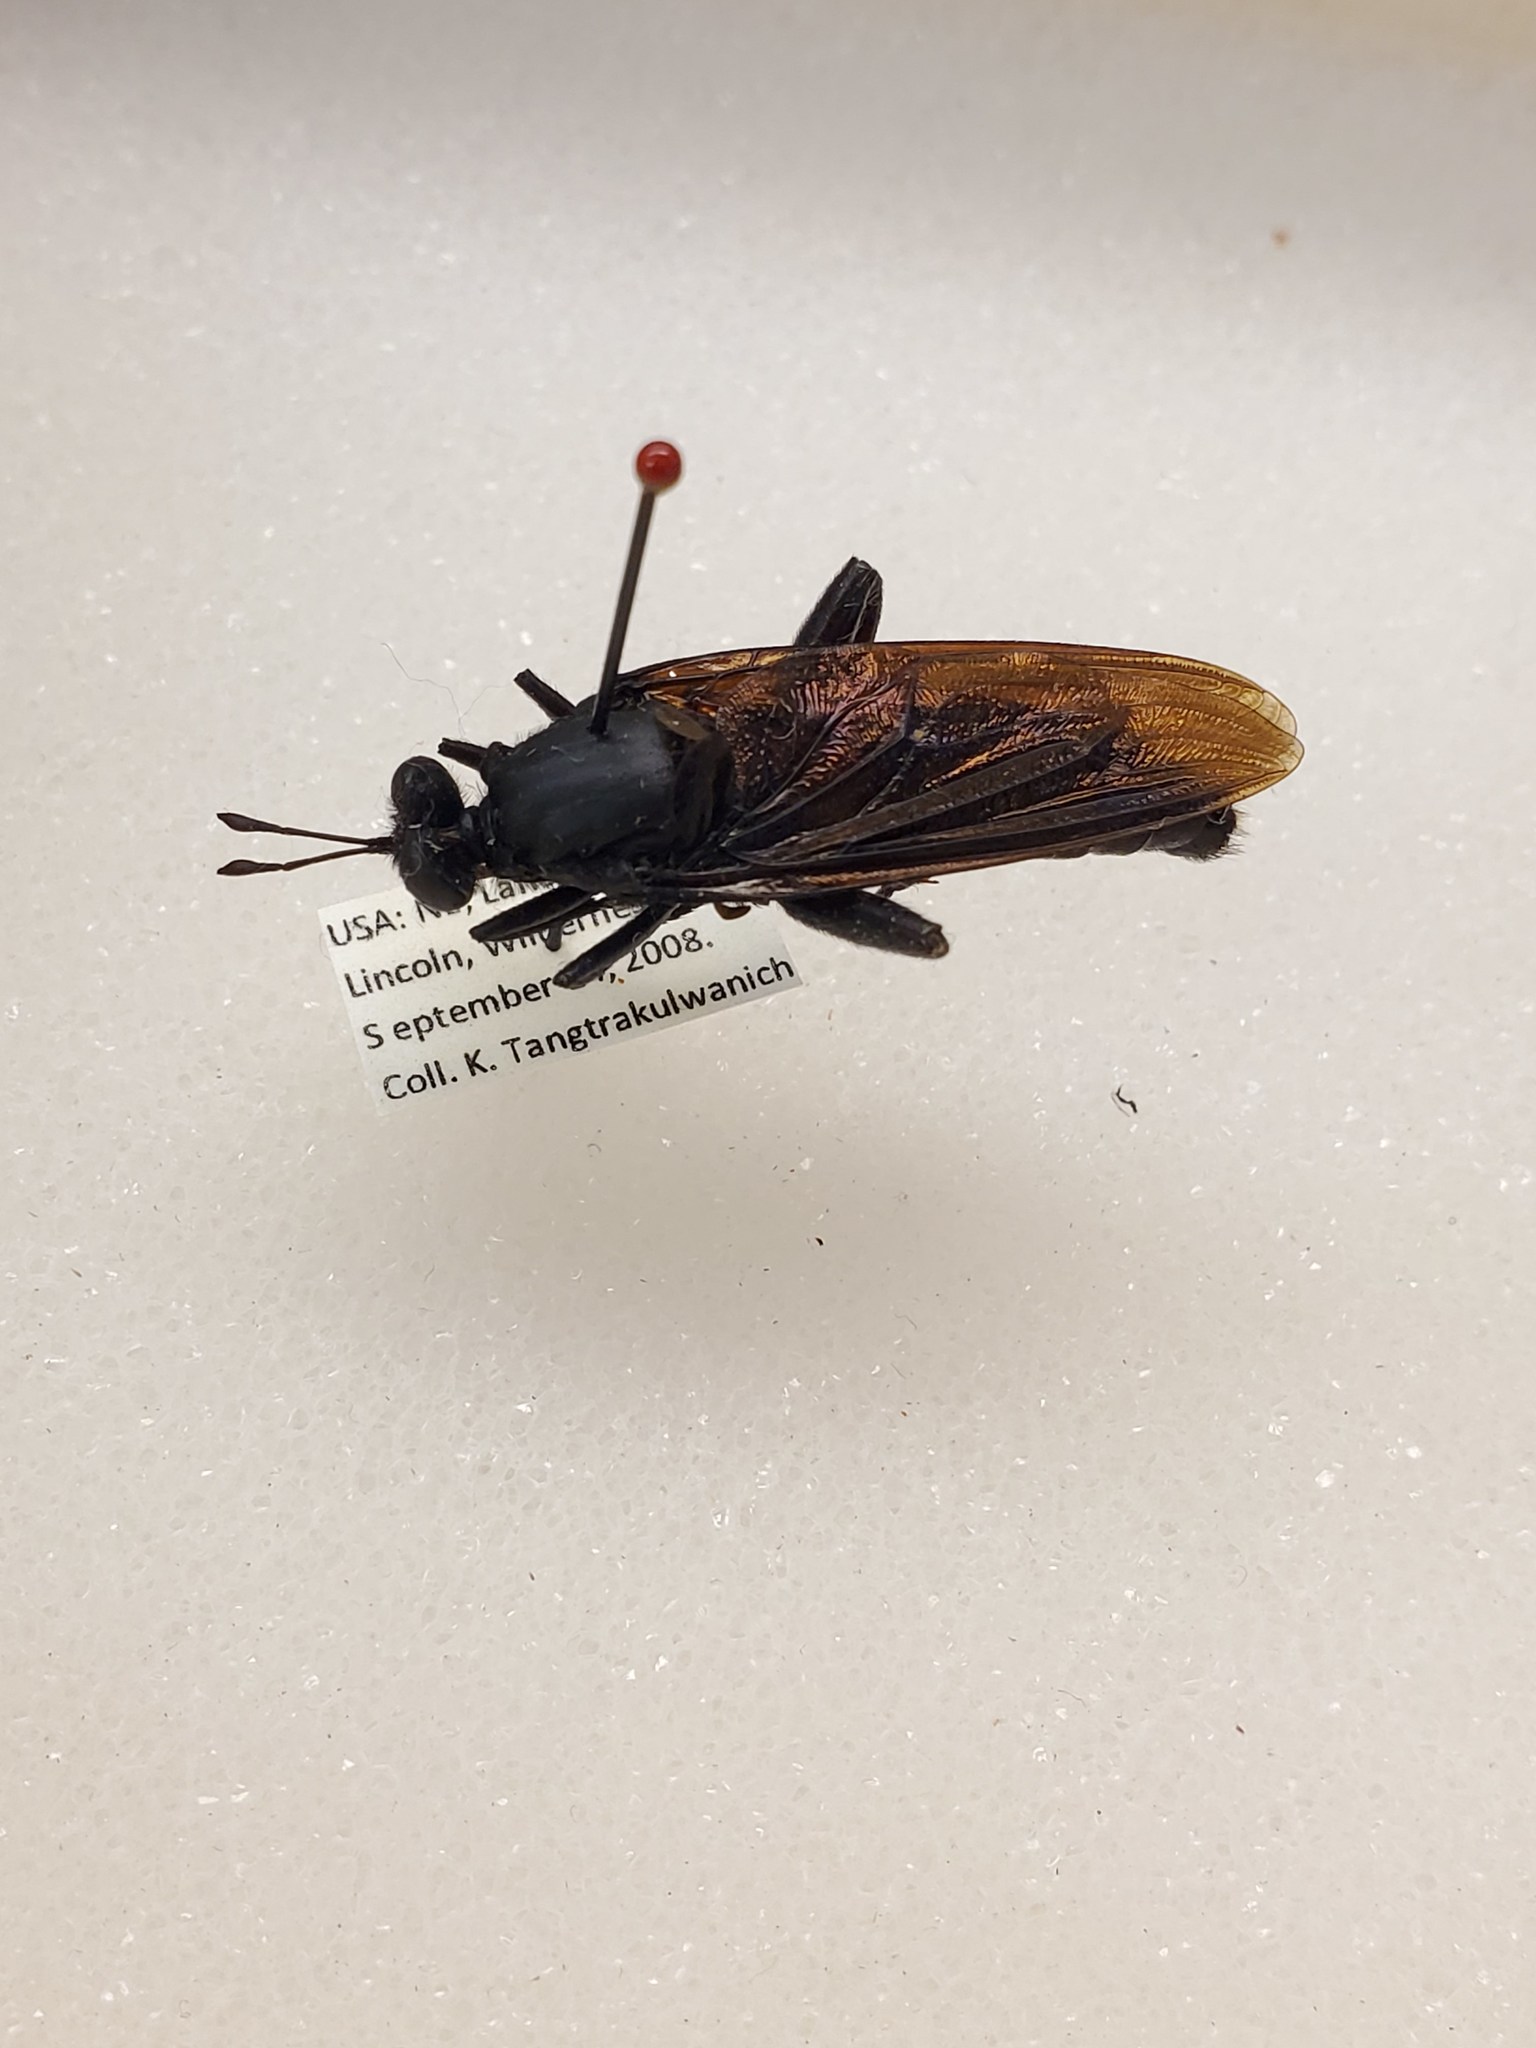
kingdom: Animalia
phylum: Arthropoda
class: Insecta
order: Diptera
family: Mydidae
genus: Mydas
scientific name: Mydas clavatus
